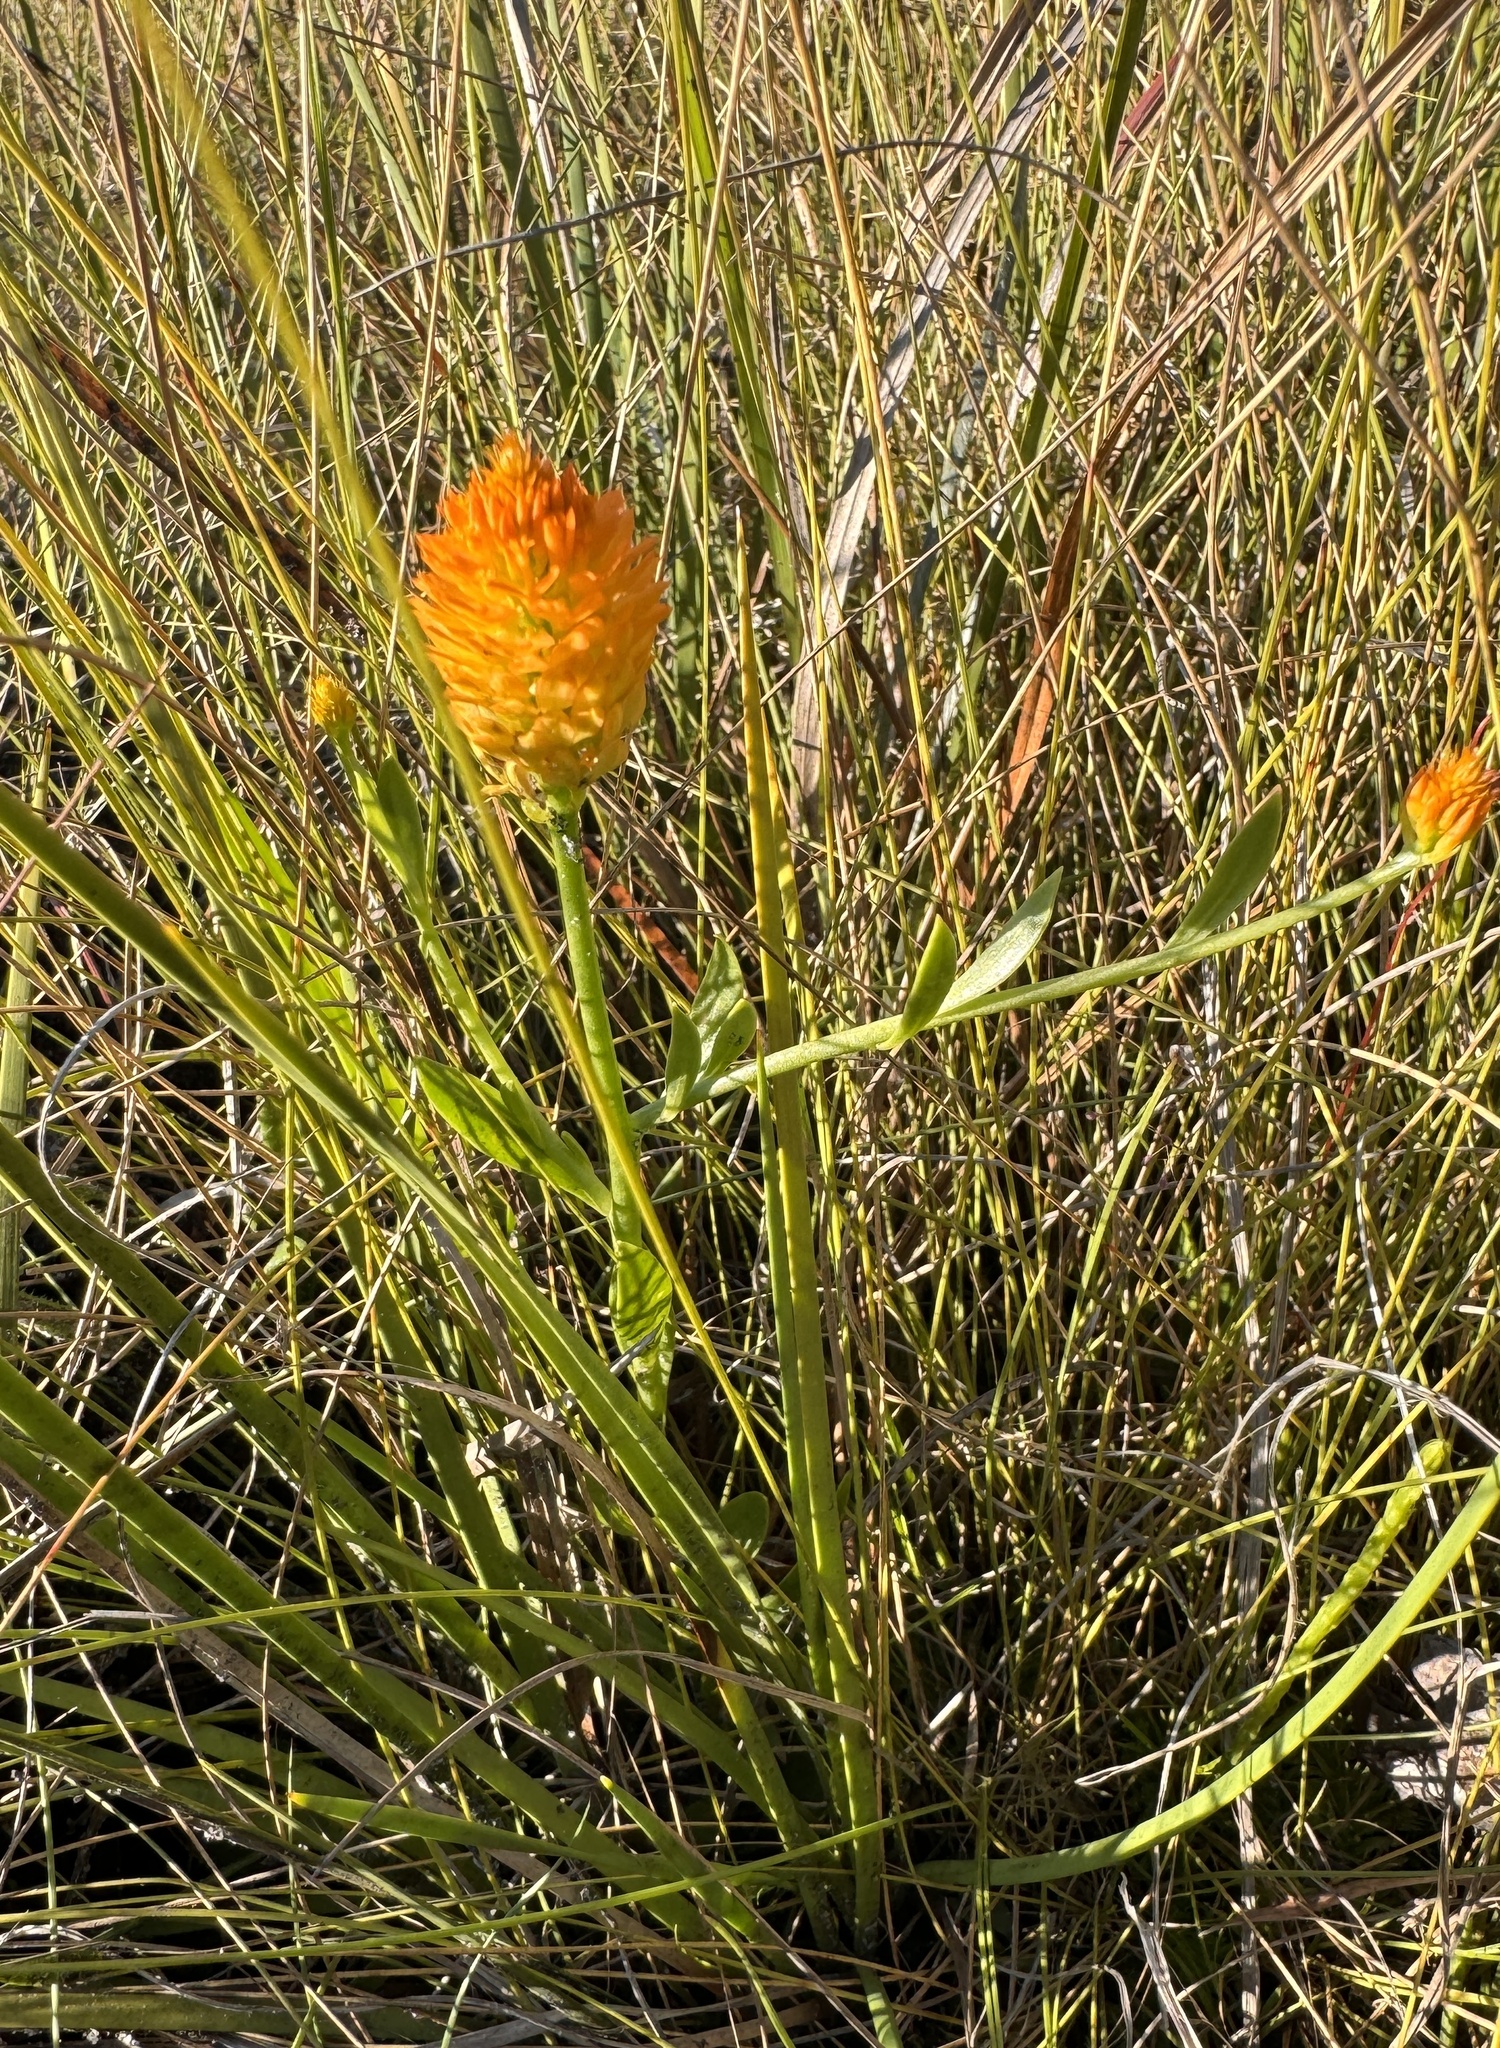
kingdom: Plantae
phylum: Tracheophyta
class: Magnoliopsida
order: Fabales
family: Polygalaceae
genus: Polygala
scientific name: Polygala lutea
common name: Orange milkwort
